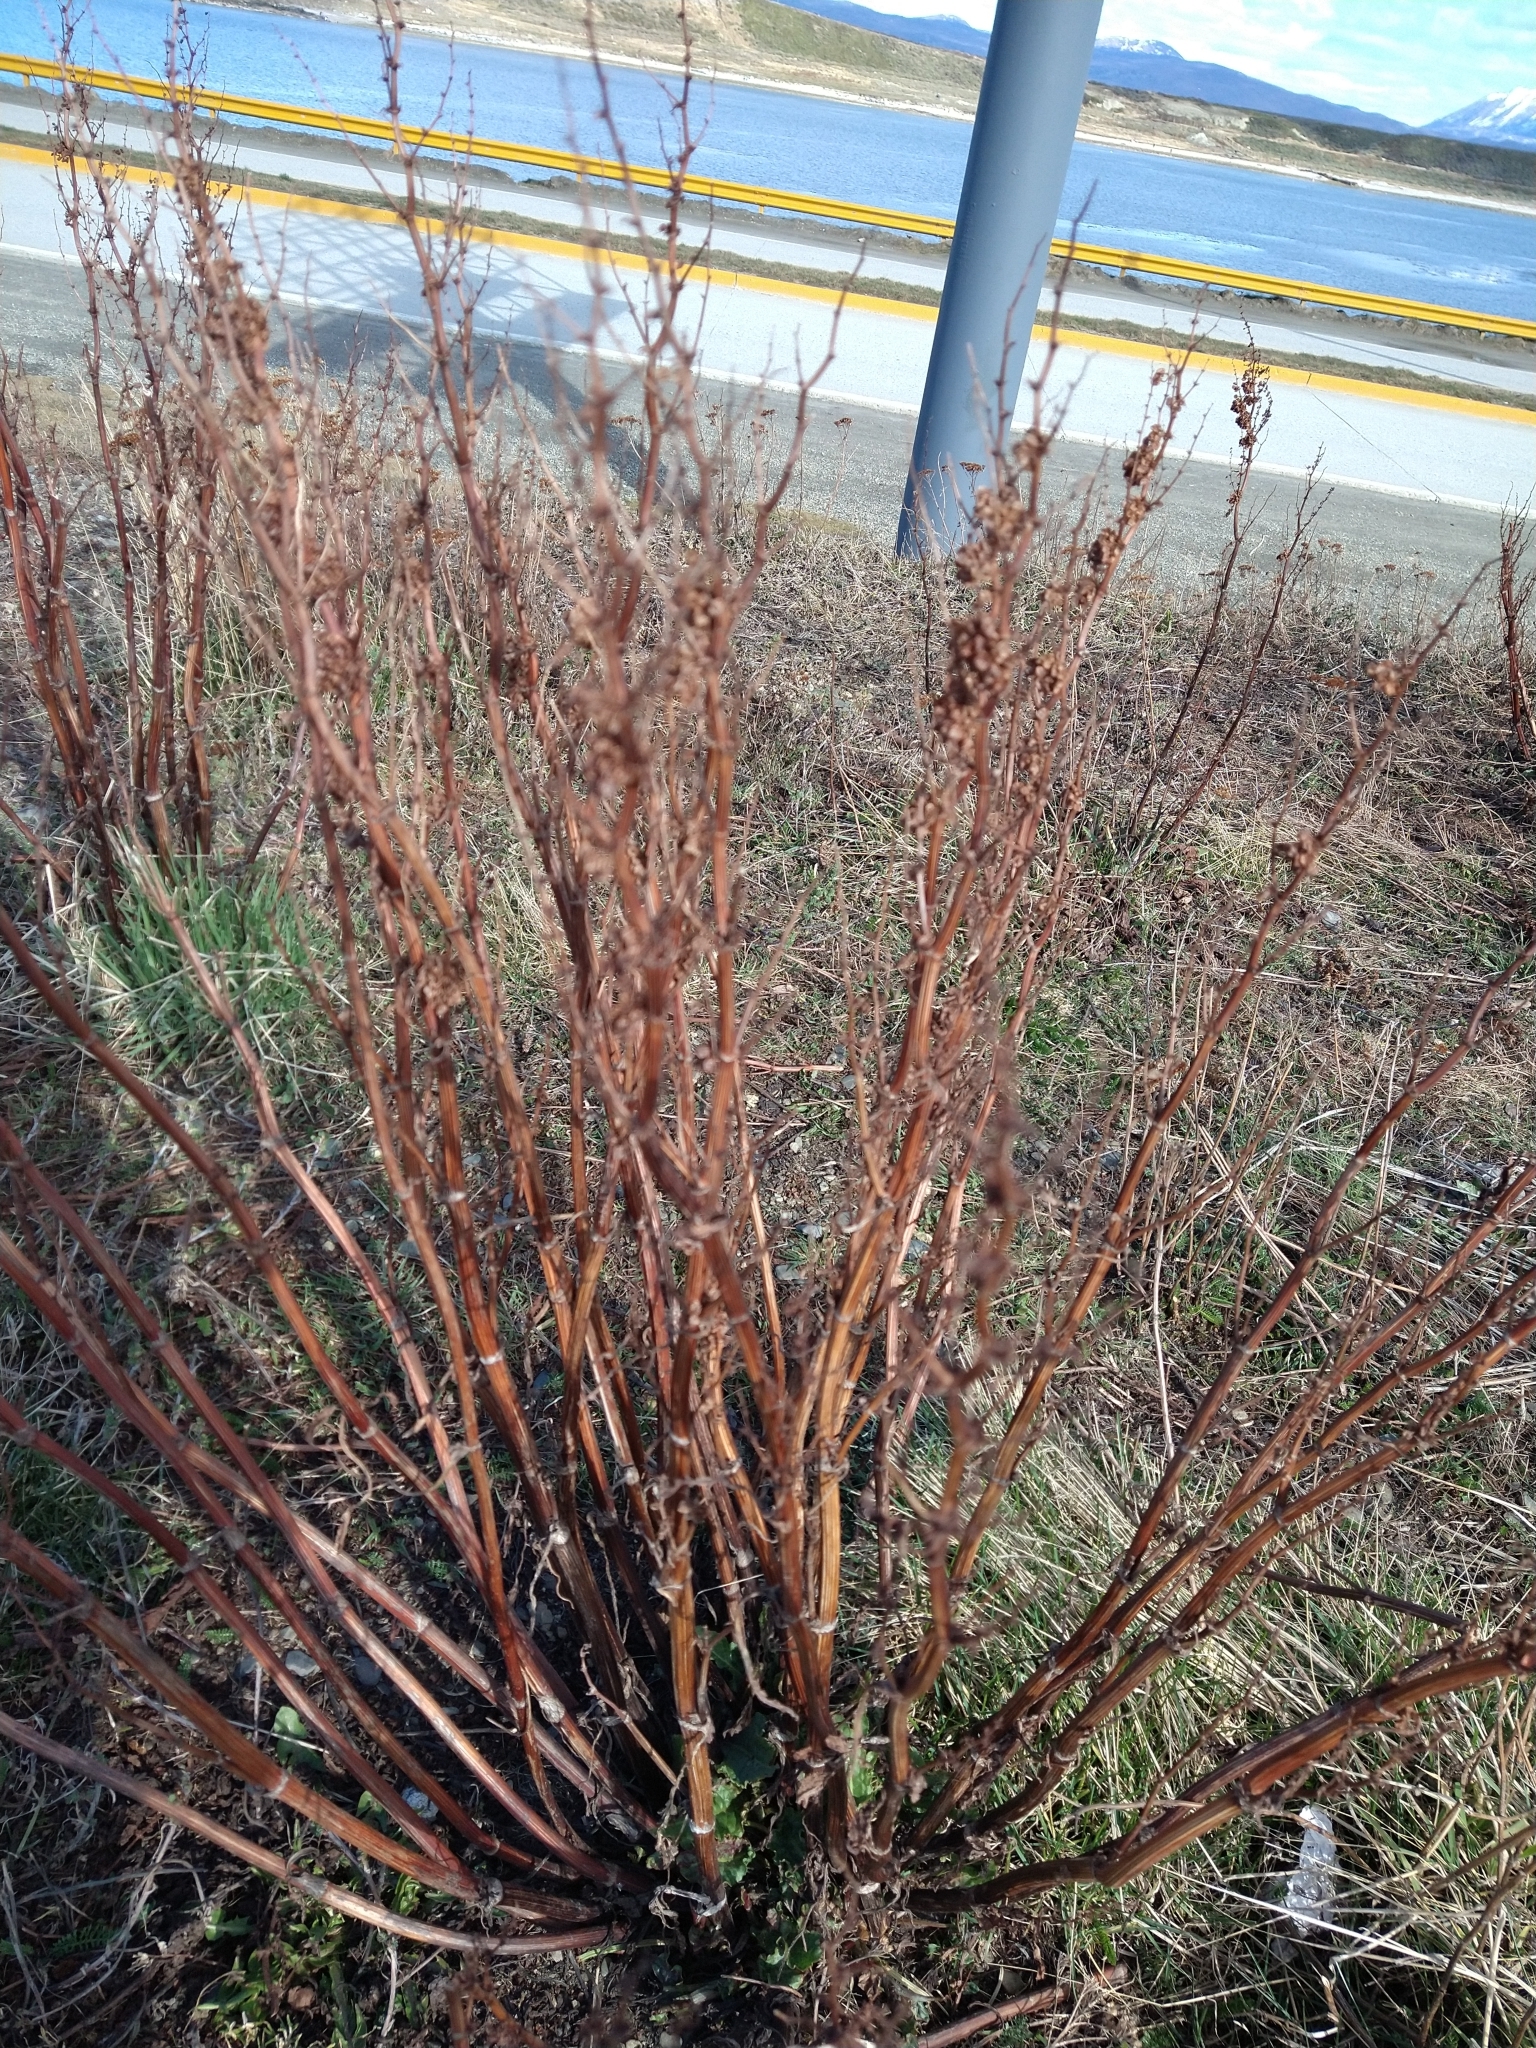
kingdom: Plantae
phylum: Tracheophyta
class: Magnoliopsida
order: Caryophyllales
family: Polygonaceae
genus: Rumex
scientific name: Rumex crispus
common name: Curled dock
